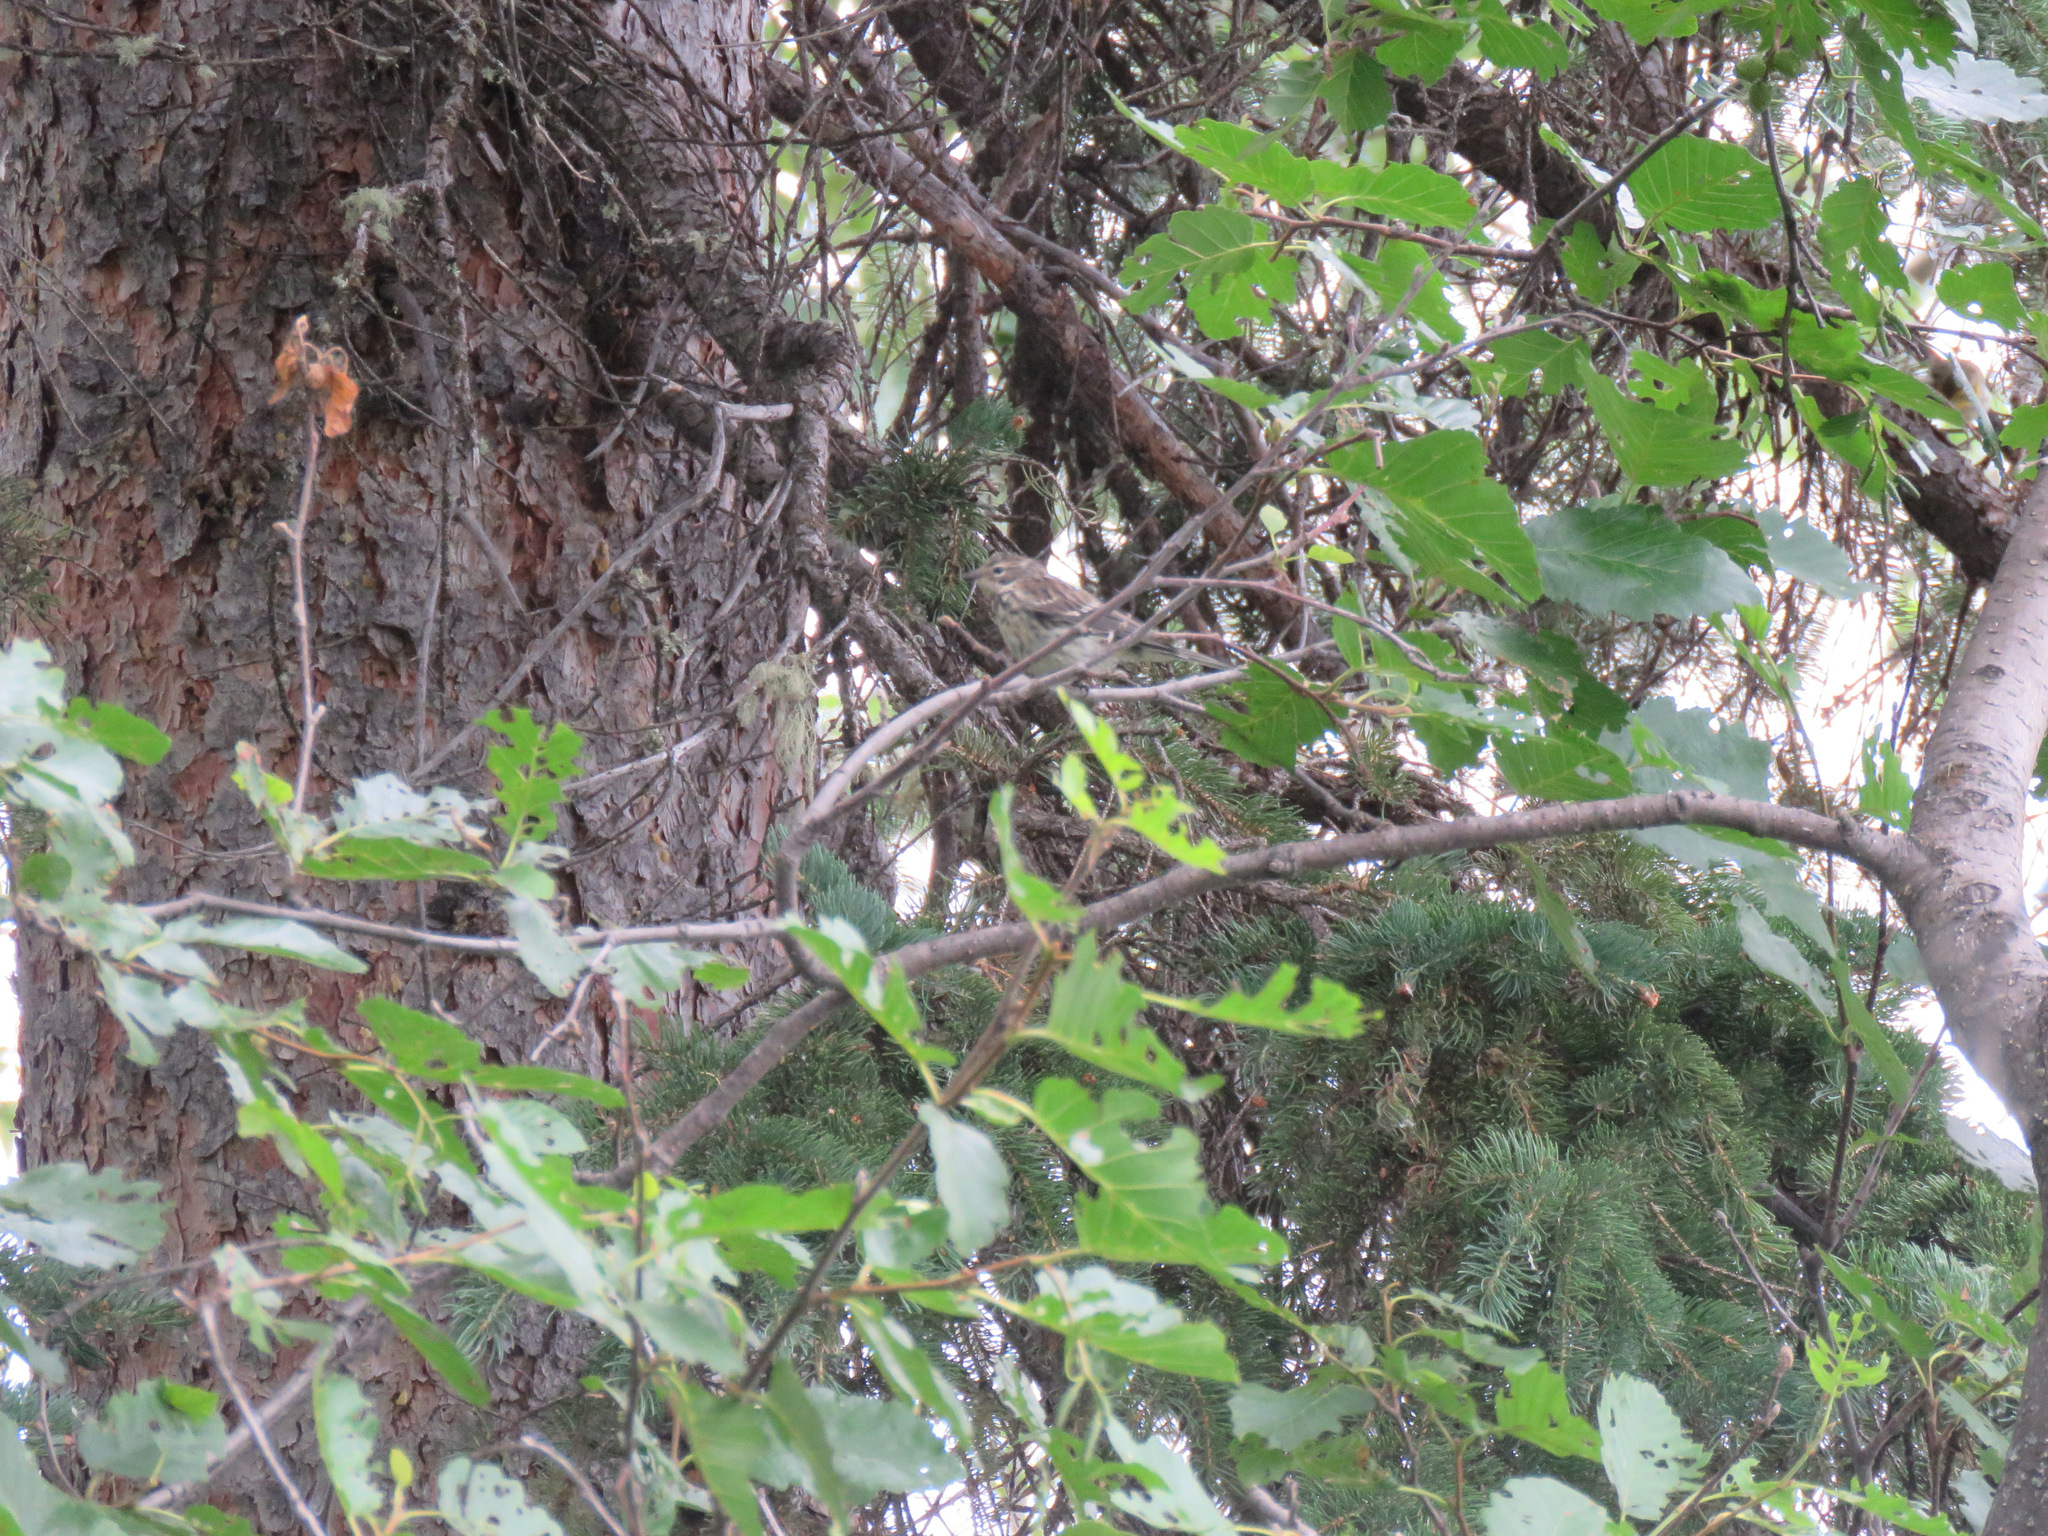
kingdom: Animalia
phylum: Chordata
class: Aves
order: Passeriformes
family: Parulidae
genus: Setophaga
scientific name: Setophaga coronata
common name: Myrtle warbler
